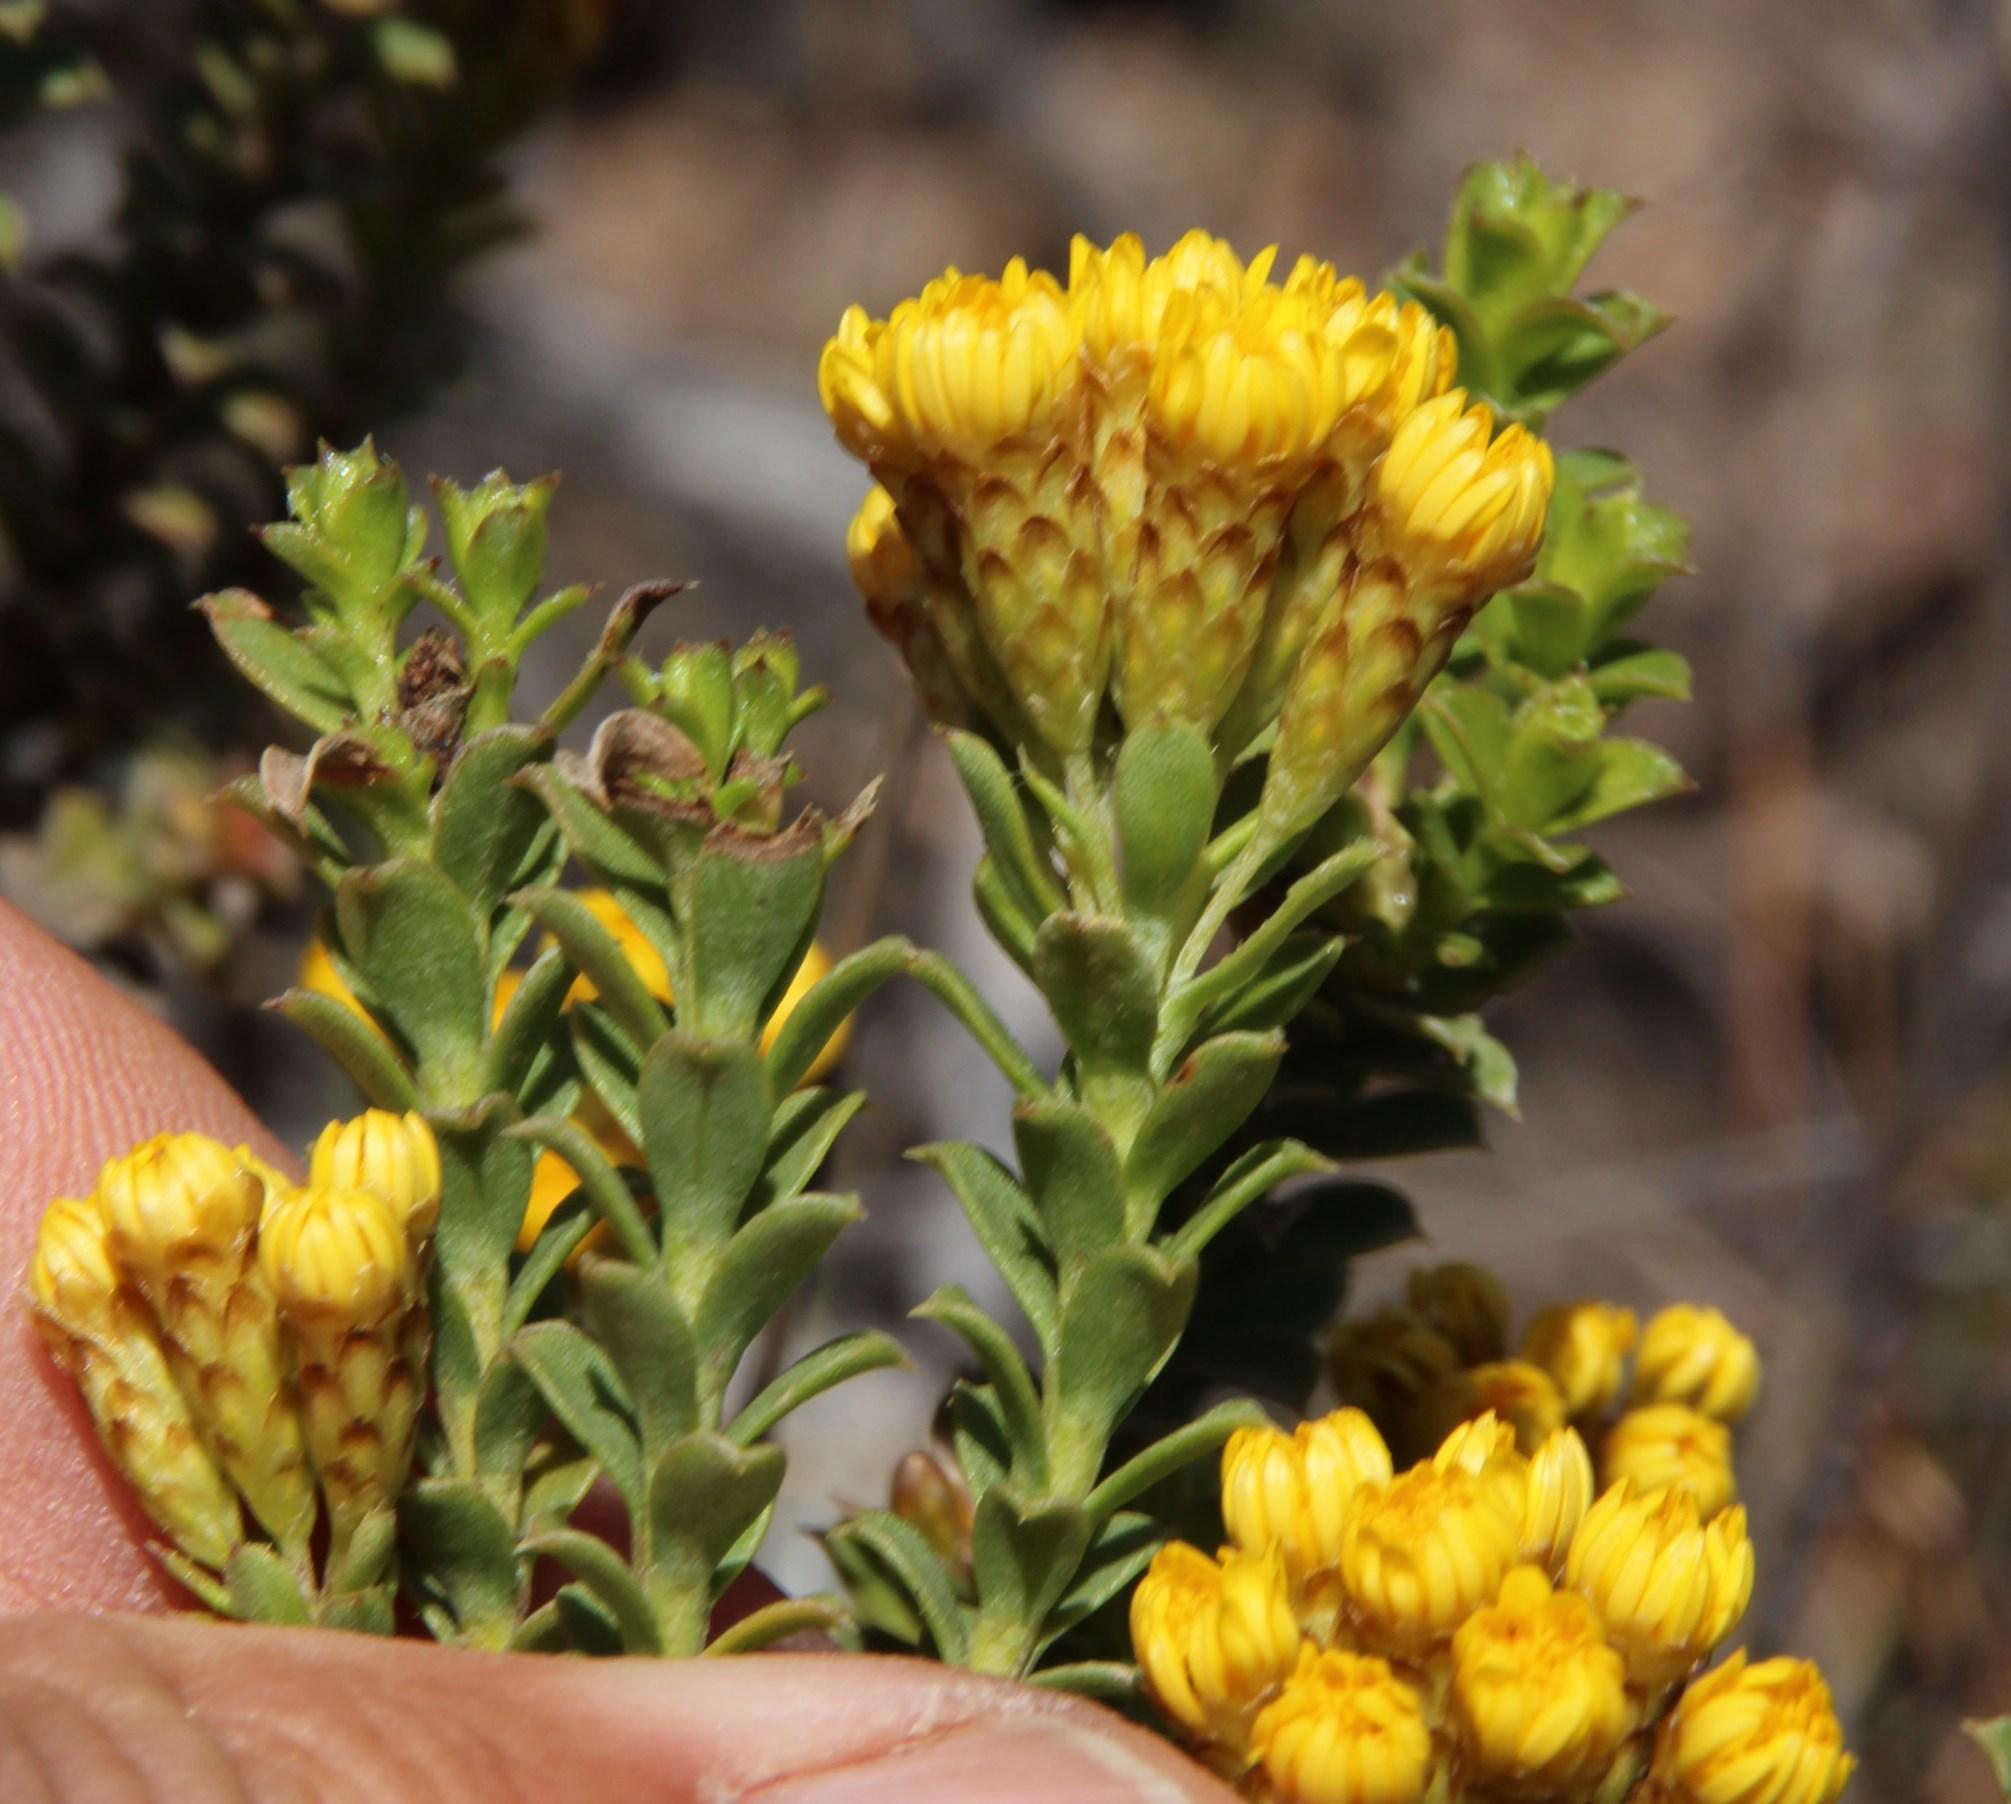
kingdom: Plantae
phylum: Tracheophyta
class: Magnoliopsida
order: Asterales
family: Asteraceae
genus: Oedera
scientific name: Oedera squarrosa
